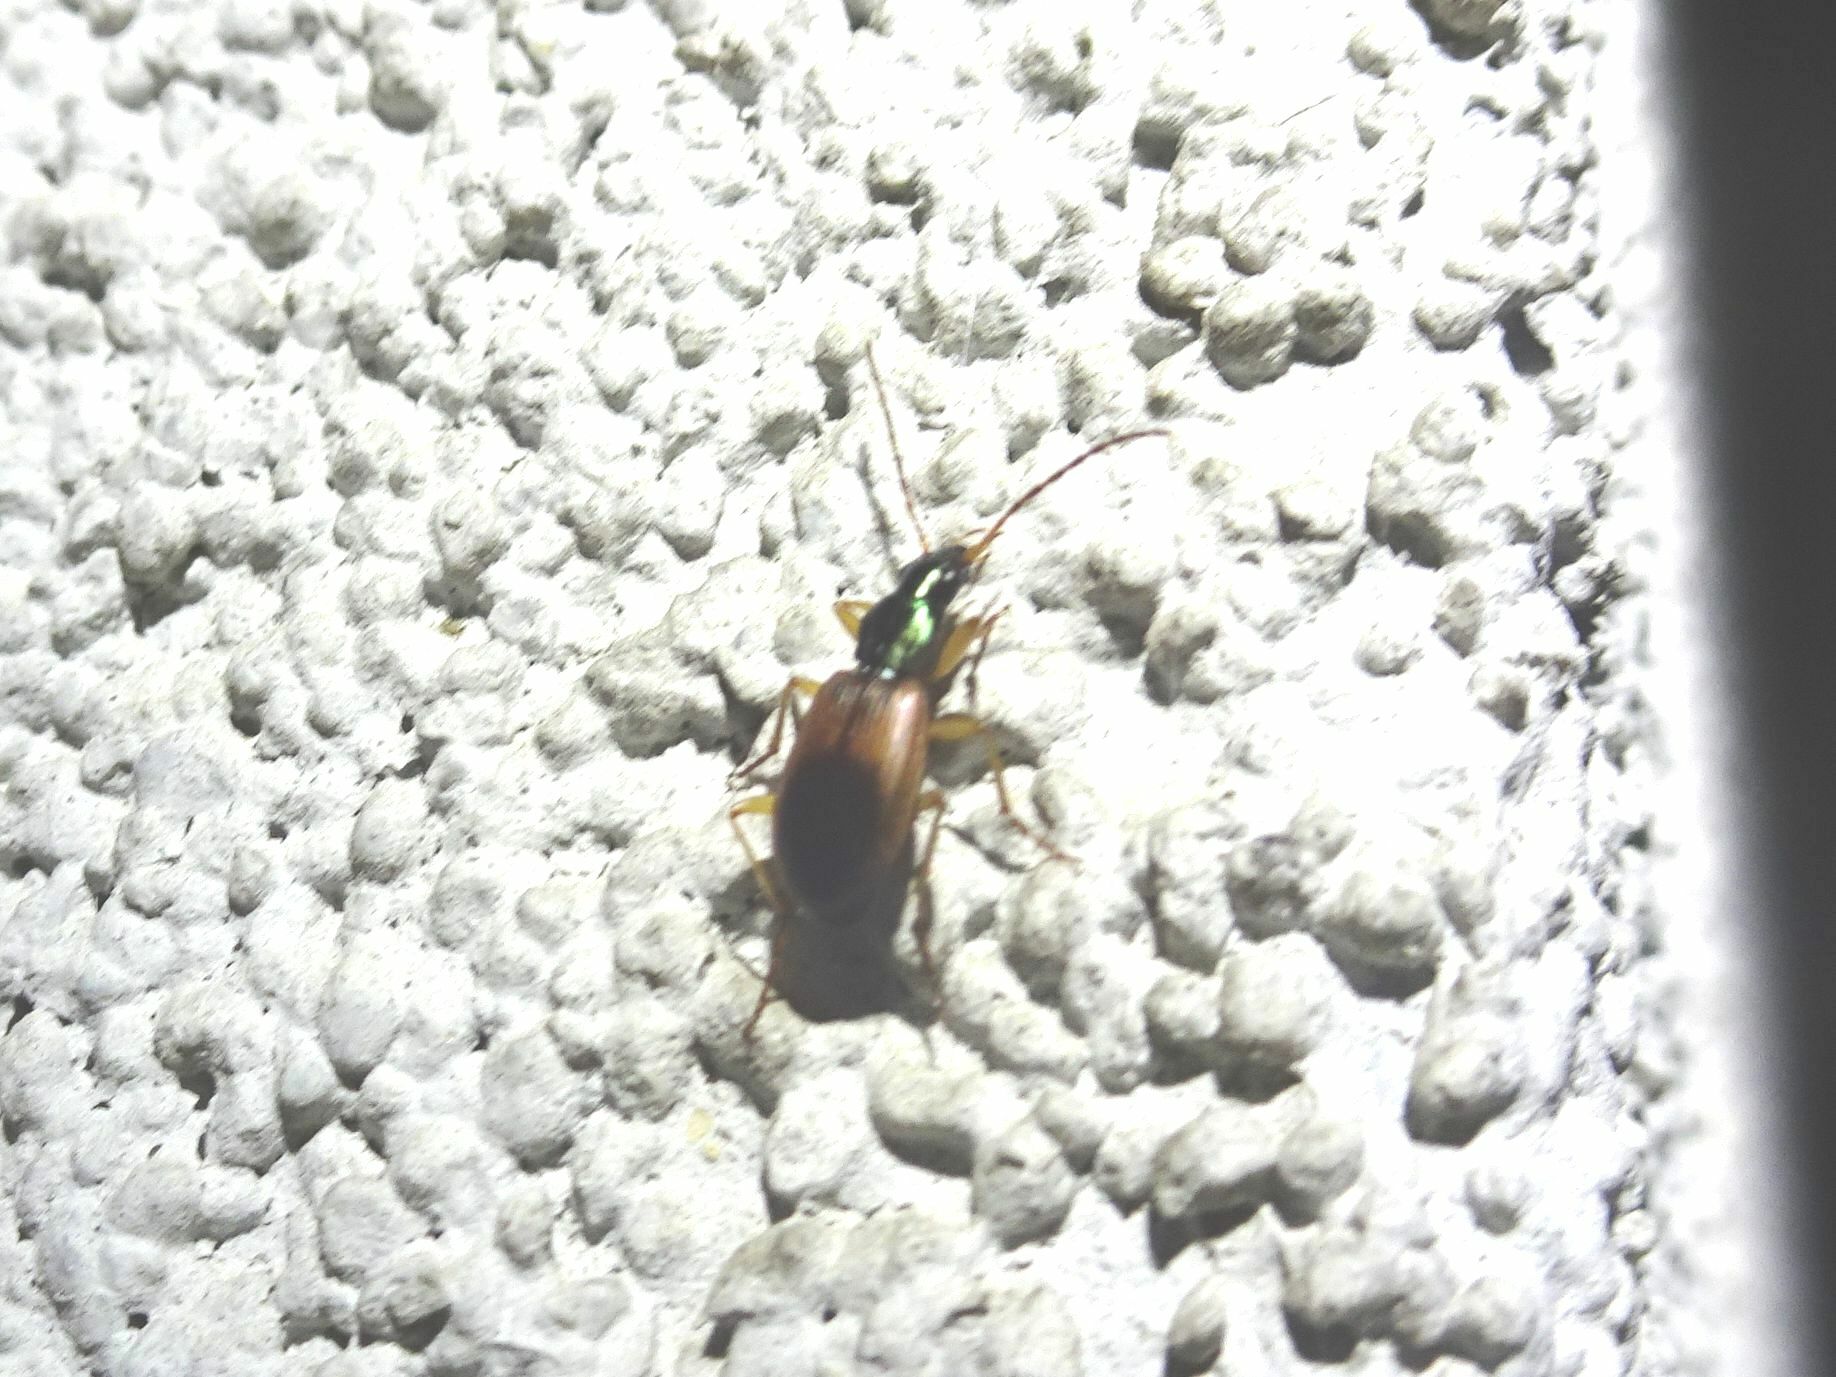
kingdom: Animalia
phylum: Arthropoda
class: Insecta
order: Coleoptera
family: Carabidae
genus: Anchomenus
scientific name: Anchomenus dorsalis
